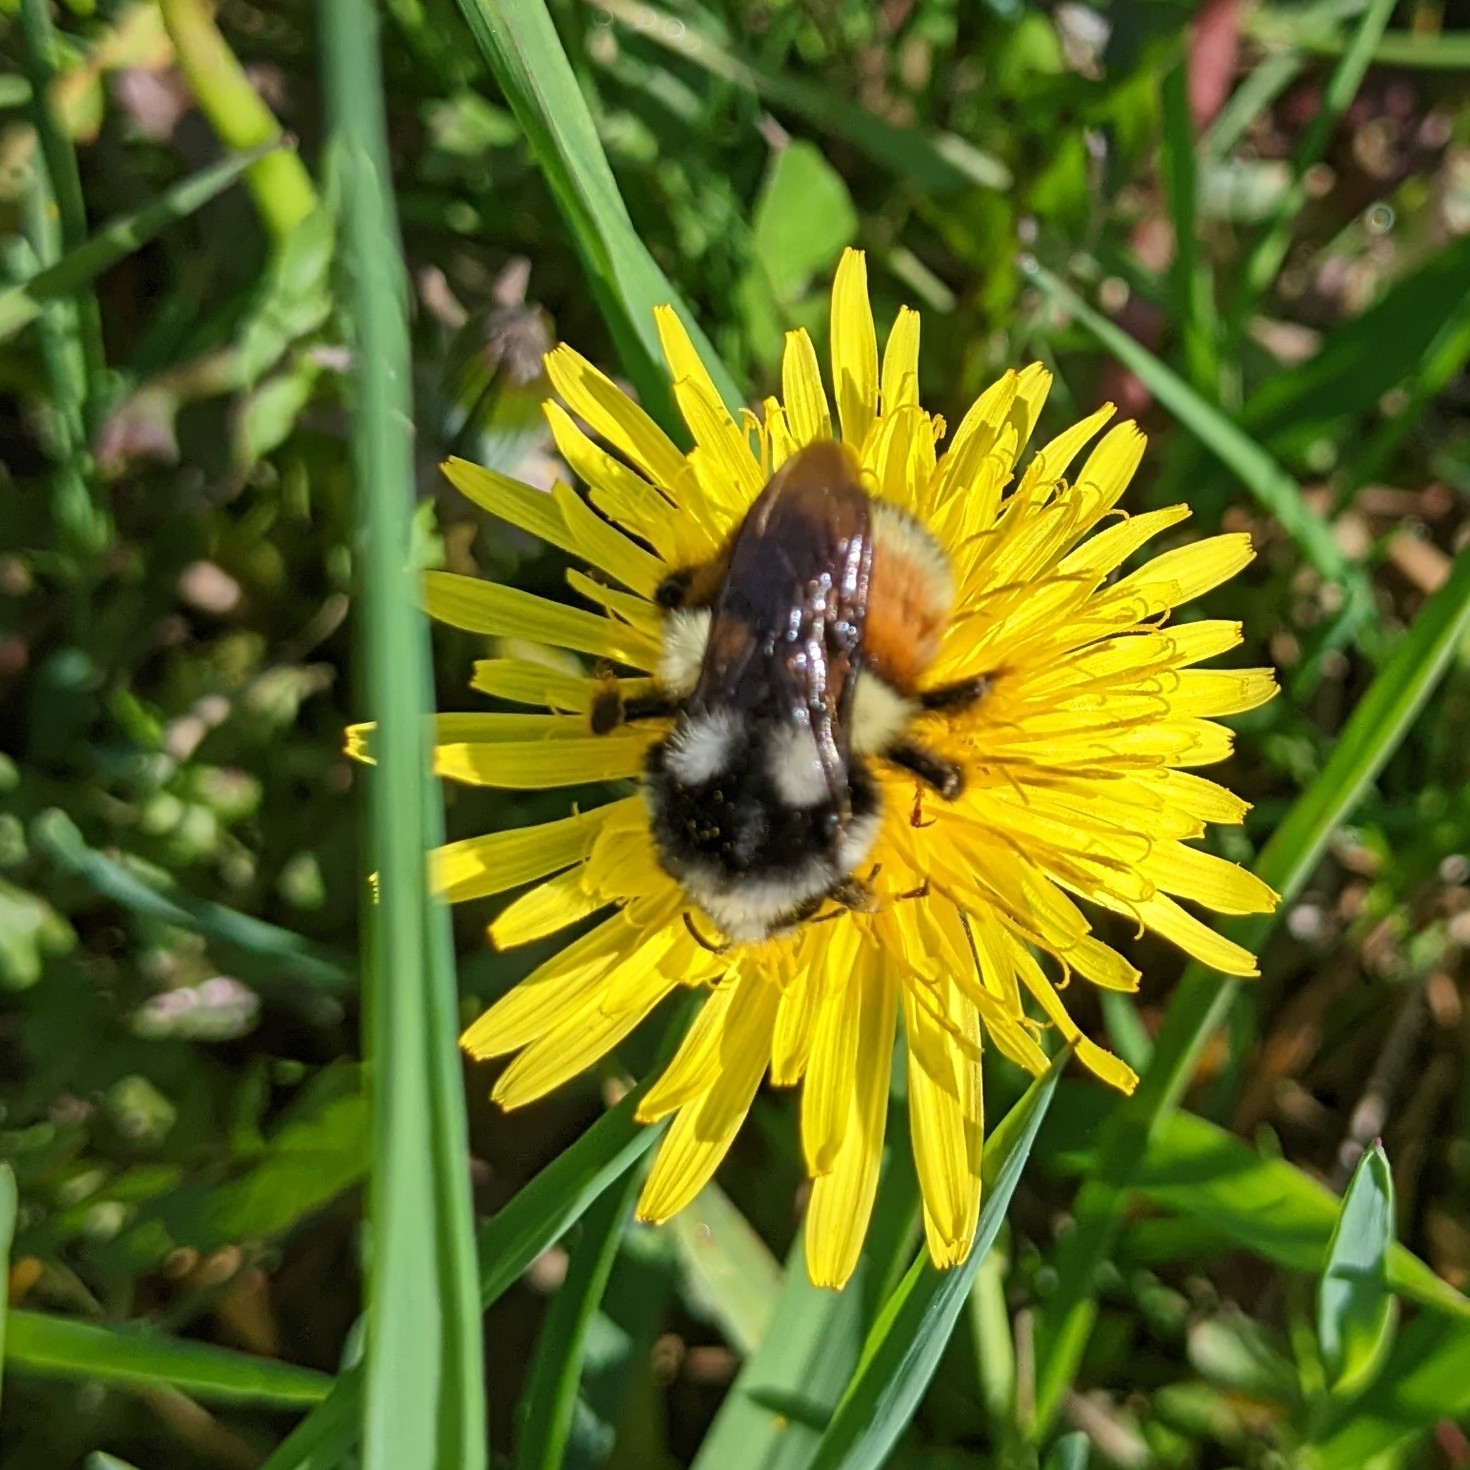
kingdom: Animalia
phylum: Arthropoda
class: Insecta
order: Hymenoptera
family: Apidae
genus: Bombus
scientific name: Bombus vancouverensis
